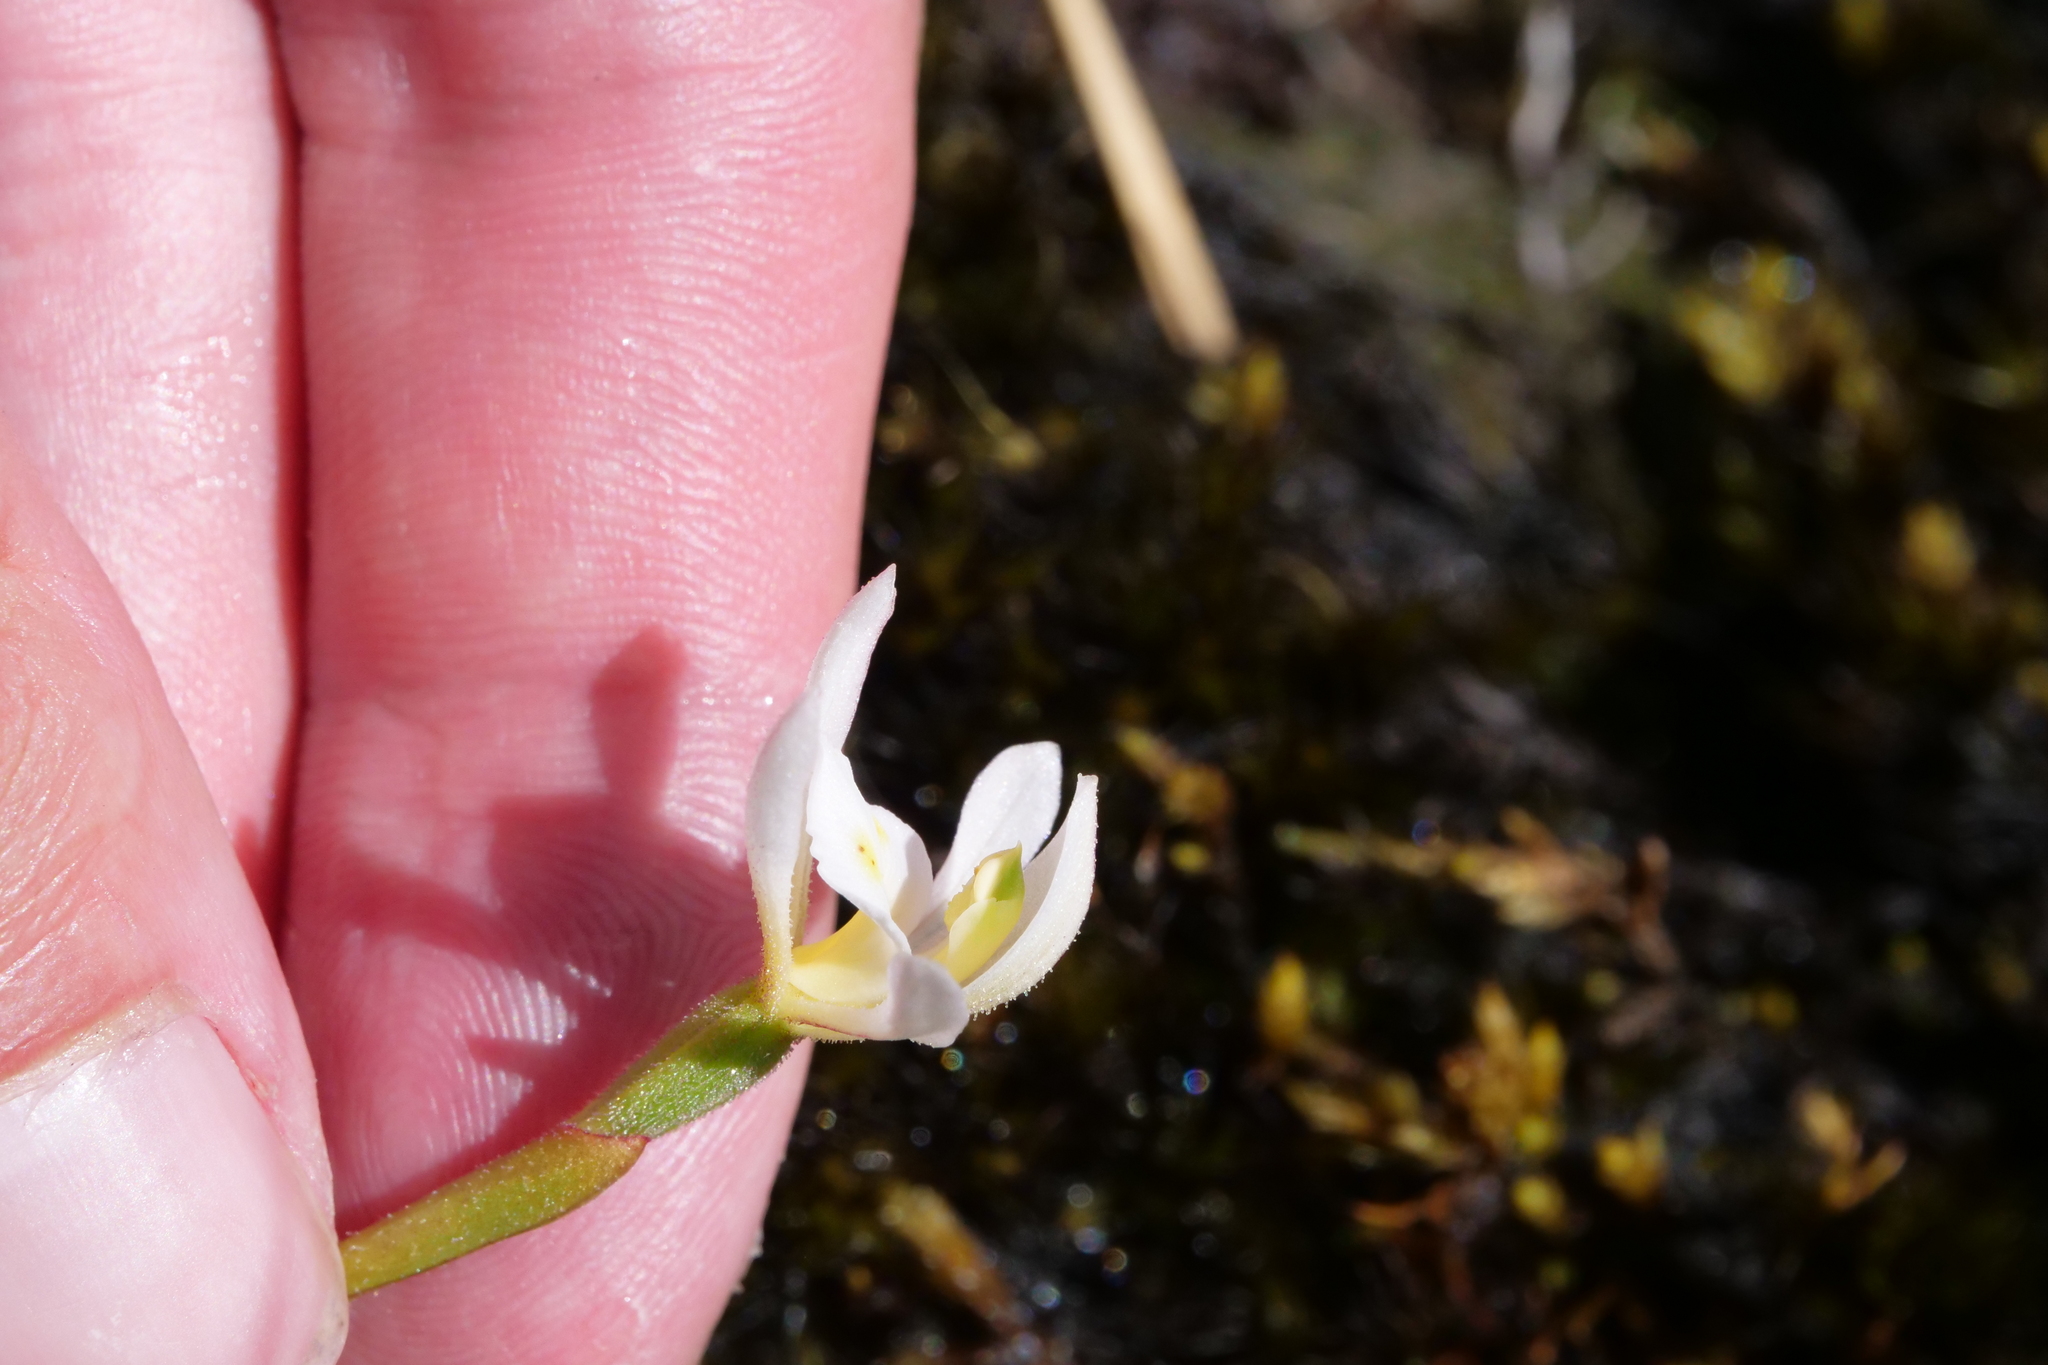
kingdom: Plantae
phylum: Tracheophyta
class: Liliopsida
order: Asparagales
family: Orchidaceae
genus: Aporostylis
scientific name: Aporostylis bifolia
